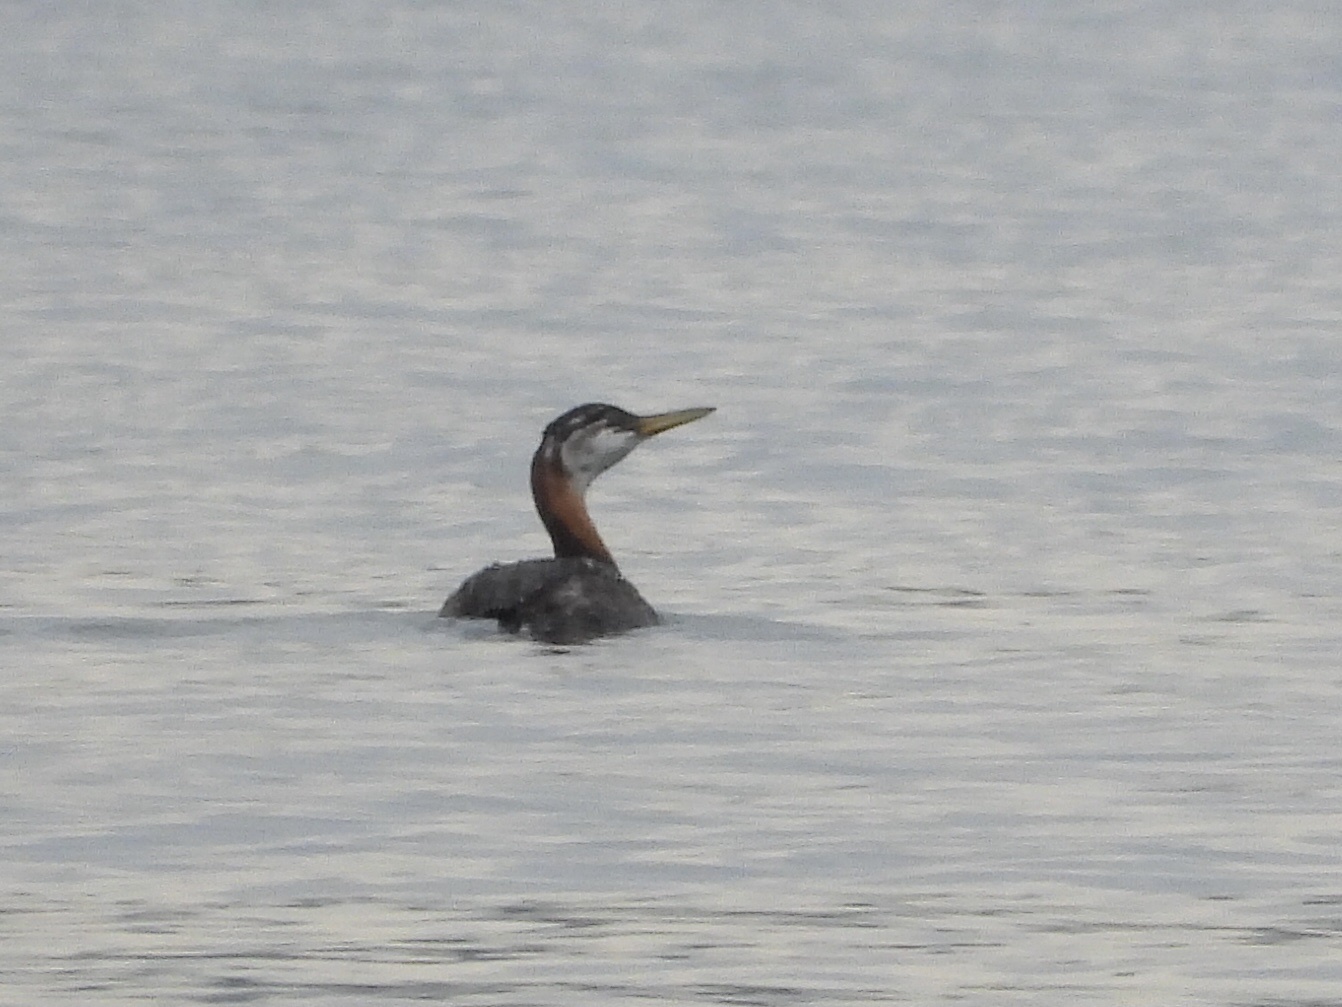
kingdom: Animalia
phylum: Chordata
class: Aves
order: Podicipediformes
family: Podicipedidae
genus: Podiceps
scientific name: Podiceps grisegena
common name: Red-necked grebe
